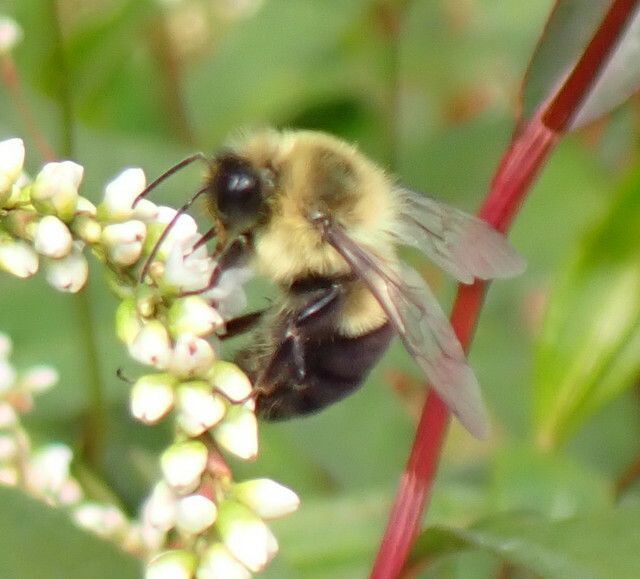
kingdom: Animalia
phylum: Arthropoda
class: Insecta
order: Hymenoptera
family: Apidae
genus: Bombus
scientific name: Bombus impatiens
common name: Common eastern bumble bee
